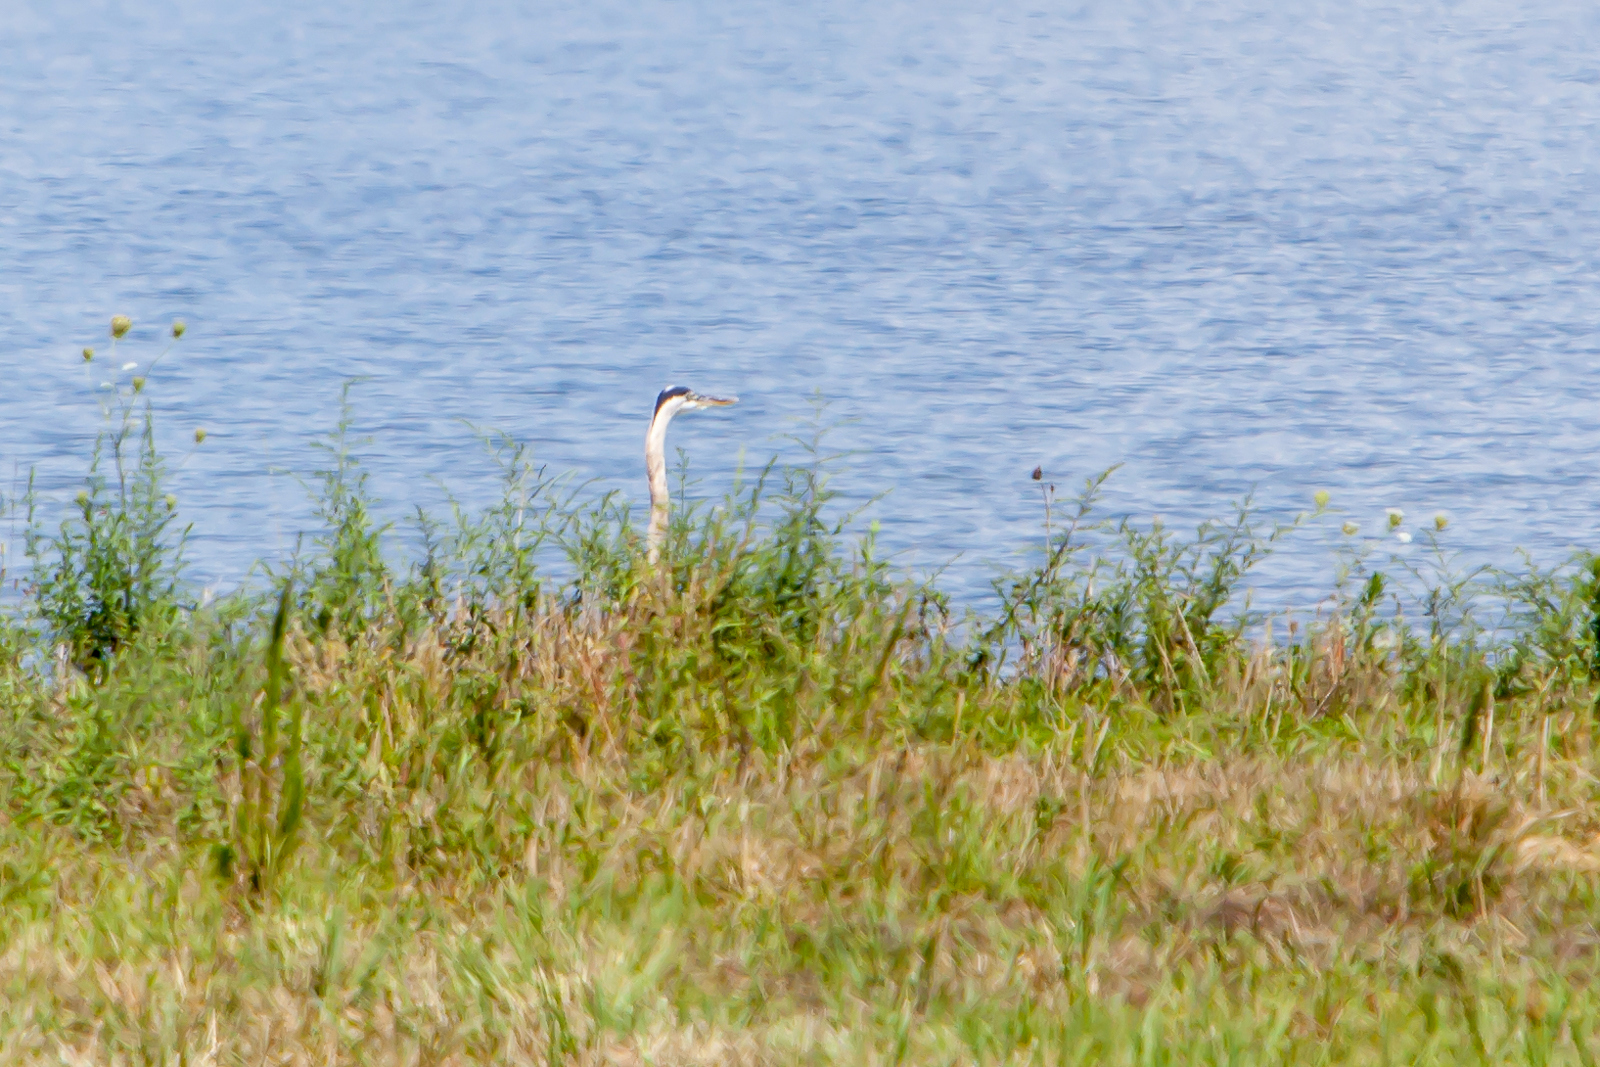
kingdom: Animalia
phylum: Chordata
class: Aves
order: Pelecaniformes
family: Ardeidae
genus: Ardea
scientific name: Ardea herodias
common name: Great blue heron
